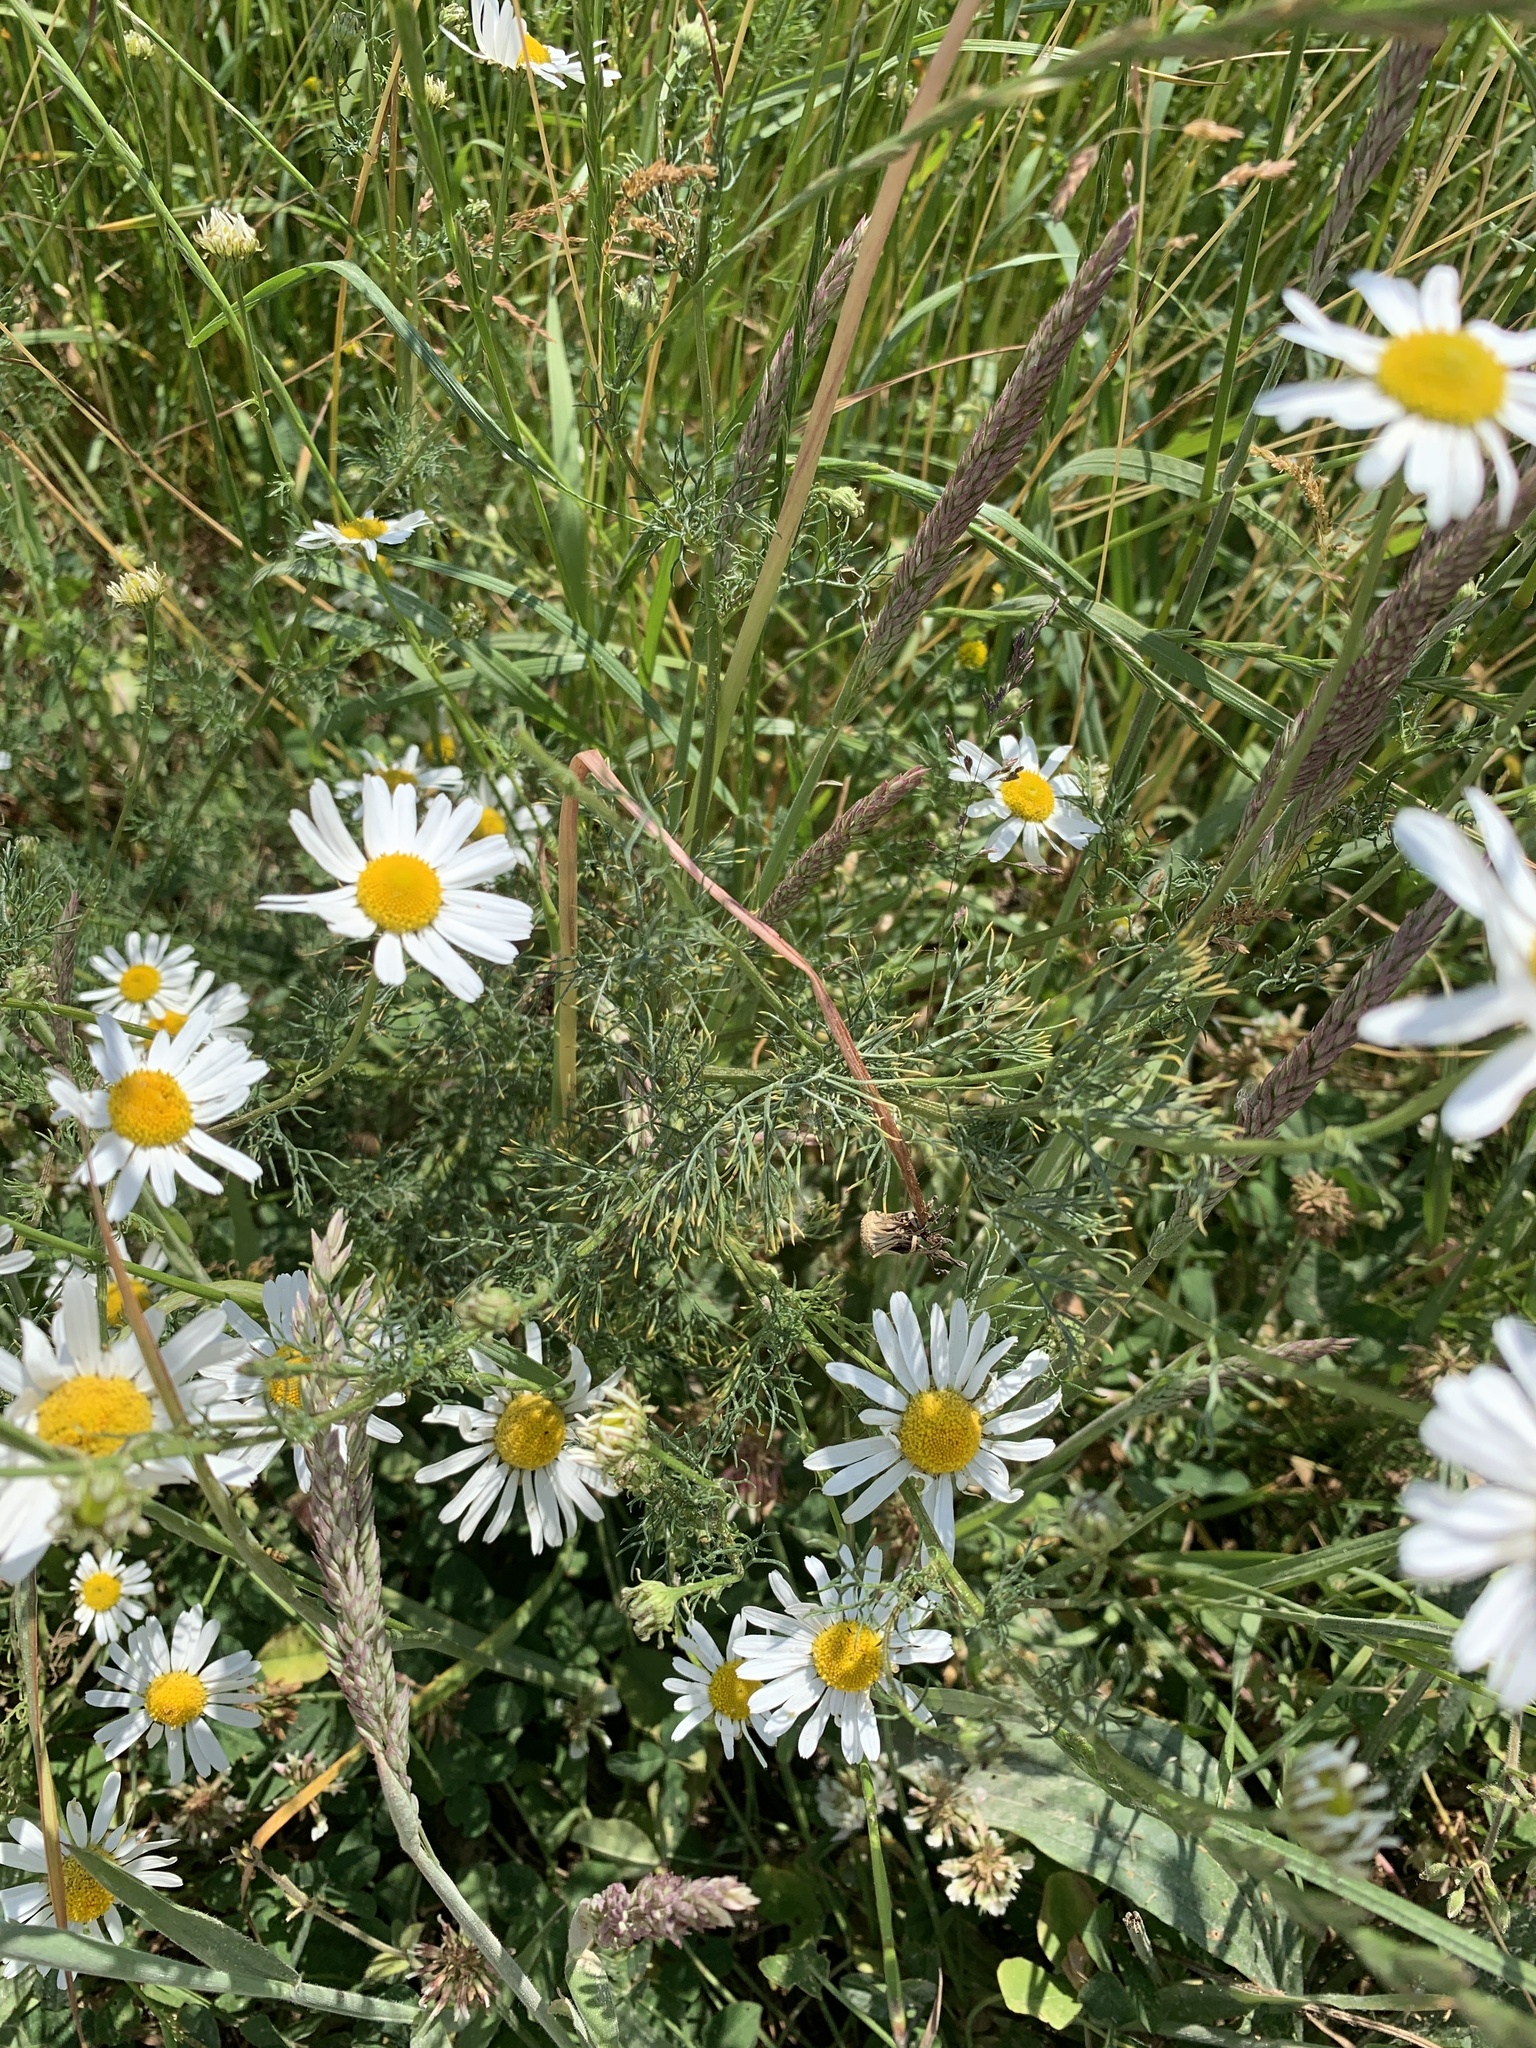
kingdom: Plantae
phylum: Tracheophyta
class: Magnoliopsida
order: Asterales
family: Asteraceae
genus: Tripleurospermum
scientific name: Tripleurospermum inodorum
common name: Scentless mayweed
